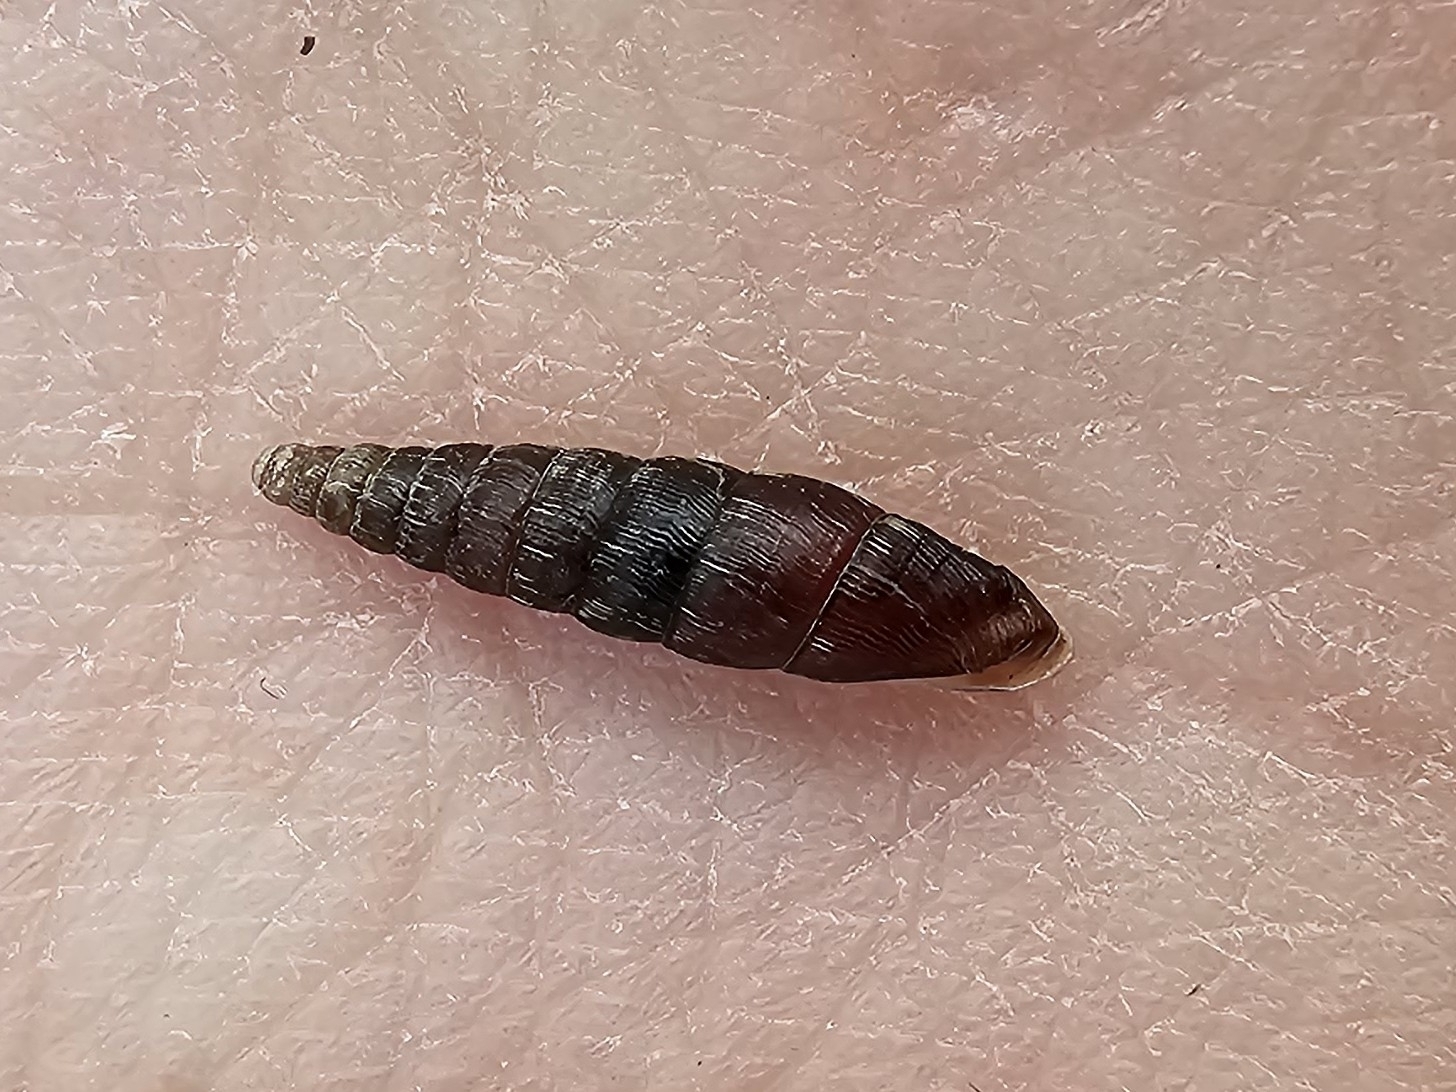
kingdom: Animalia
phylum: Mollusca
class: Gastropoda
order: Stylommatophora
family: Clausiliidae
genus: Clausilia
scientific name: Clausilia bidentata
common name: Two-toothed door snail
